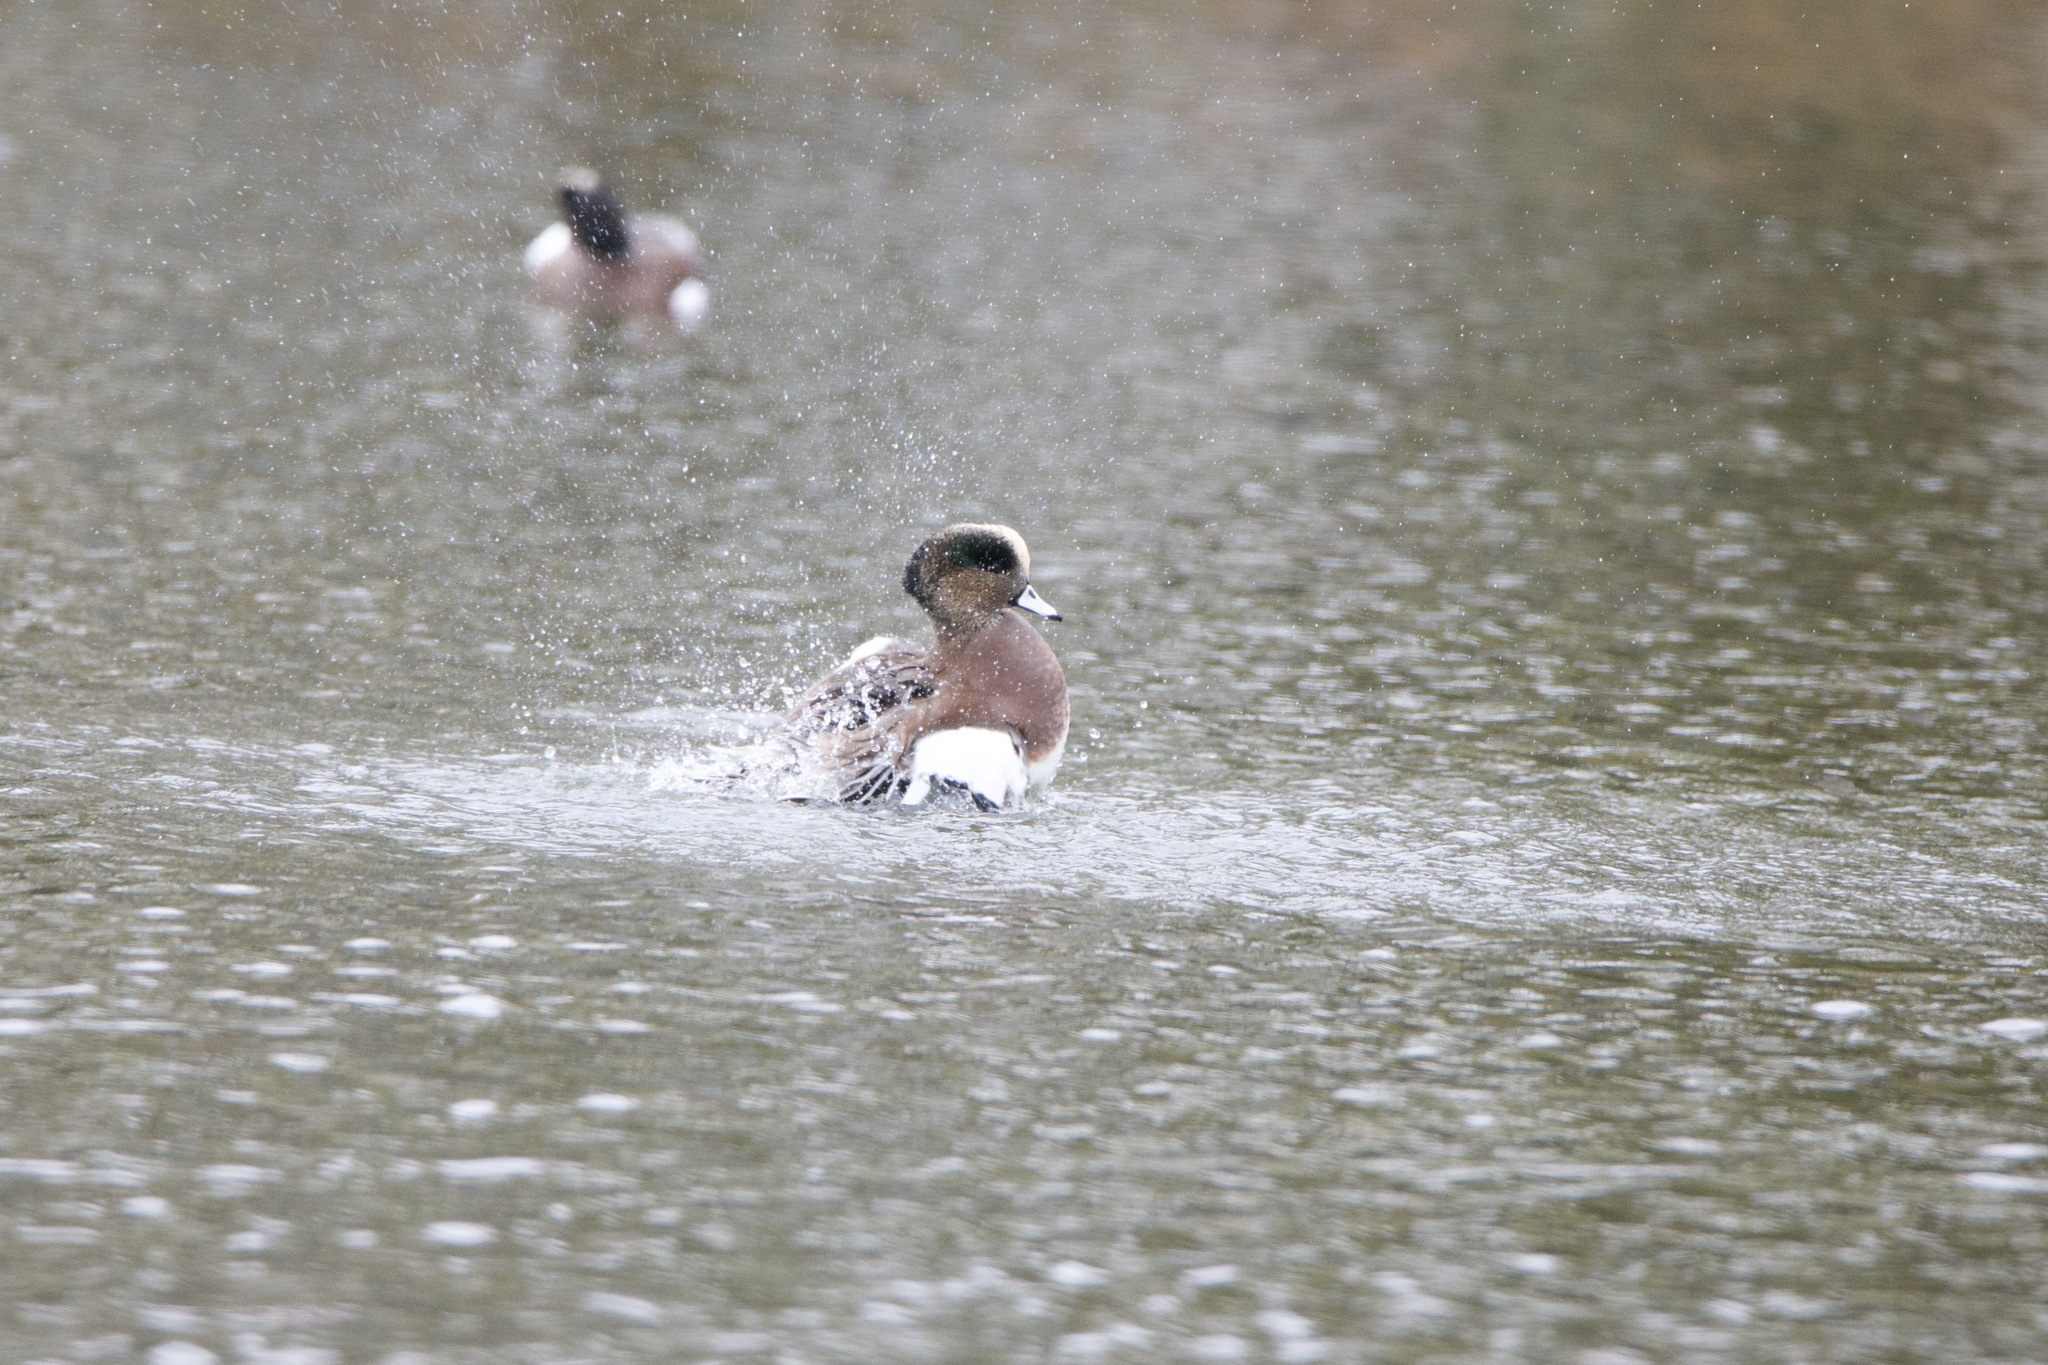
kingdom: Animalia
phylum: Chordata
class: Aves
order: Anseriformes
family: Anatidae
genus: Mareca
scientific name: Mareca americana
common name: American wigeon
